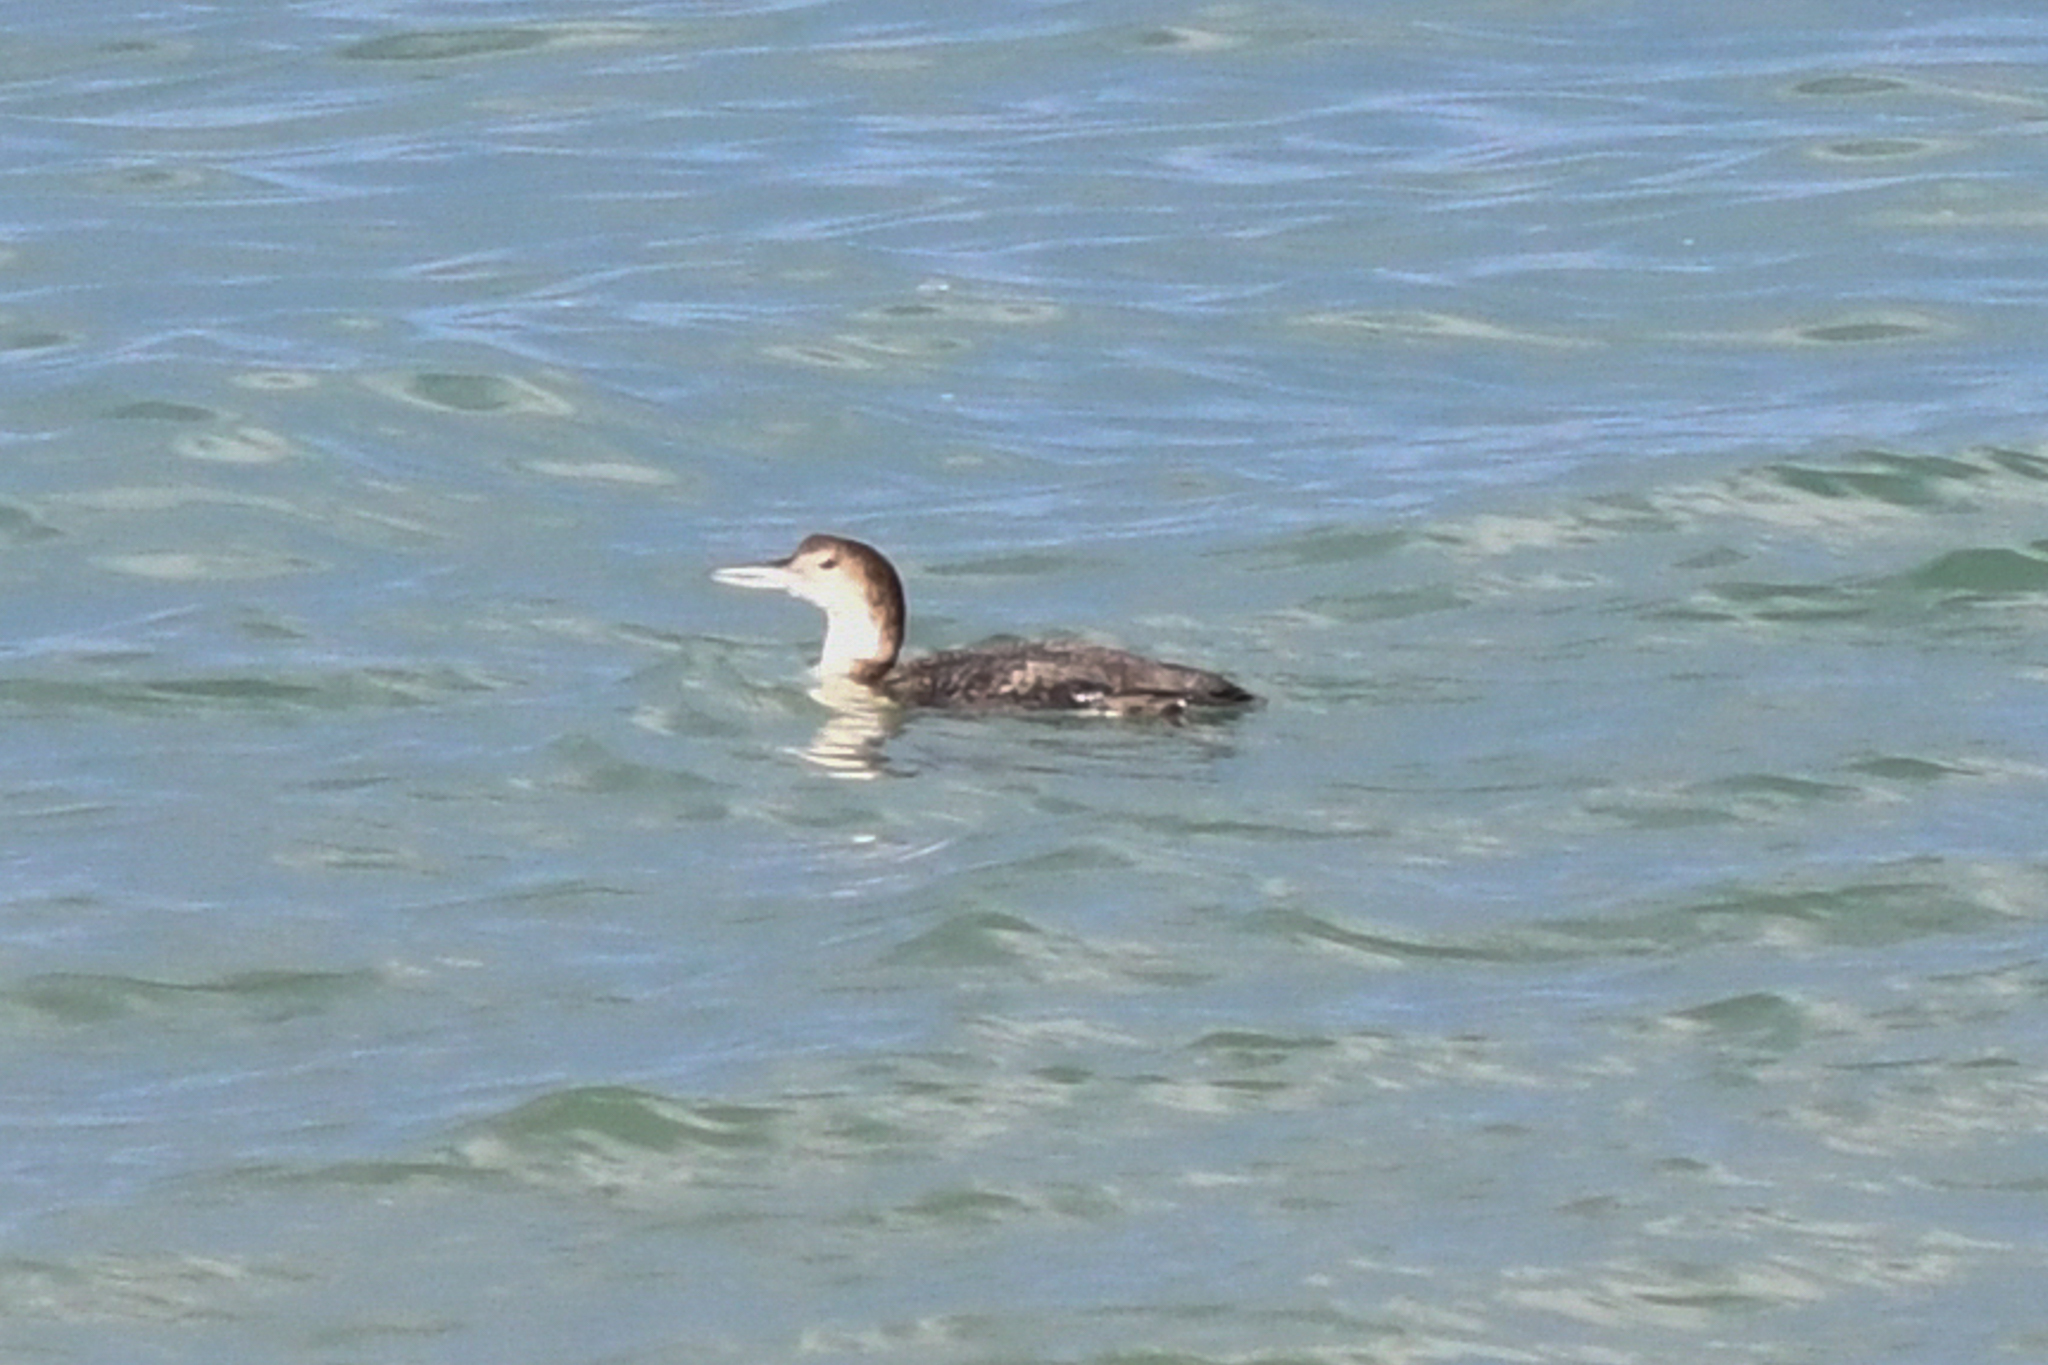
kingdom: Animalia
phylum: Chordata
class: Aves
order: Gaviiformes
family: Gaviidae
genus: Gavia
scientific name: Gavia immer
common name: Common loon
